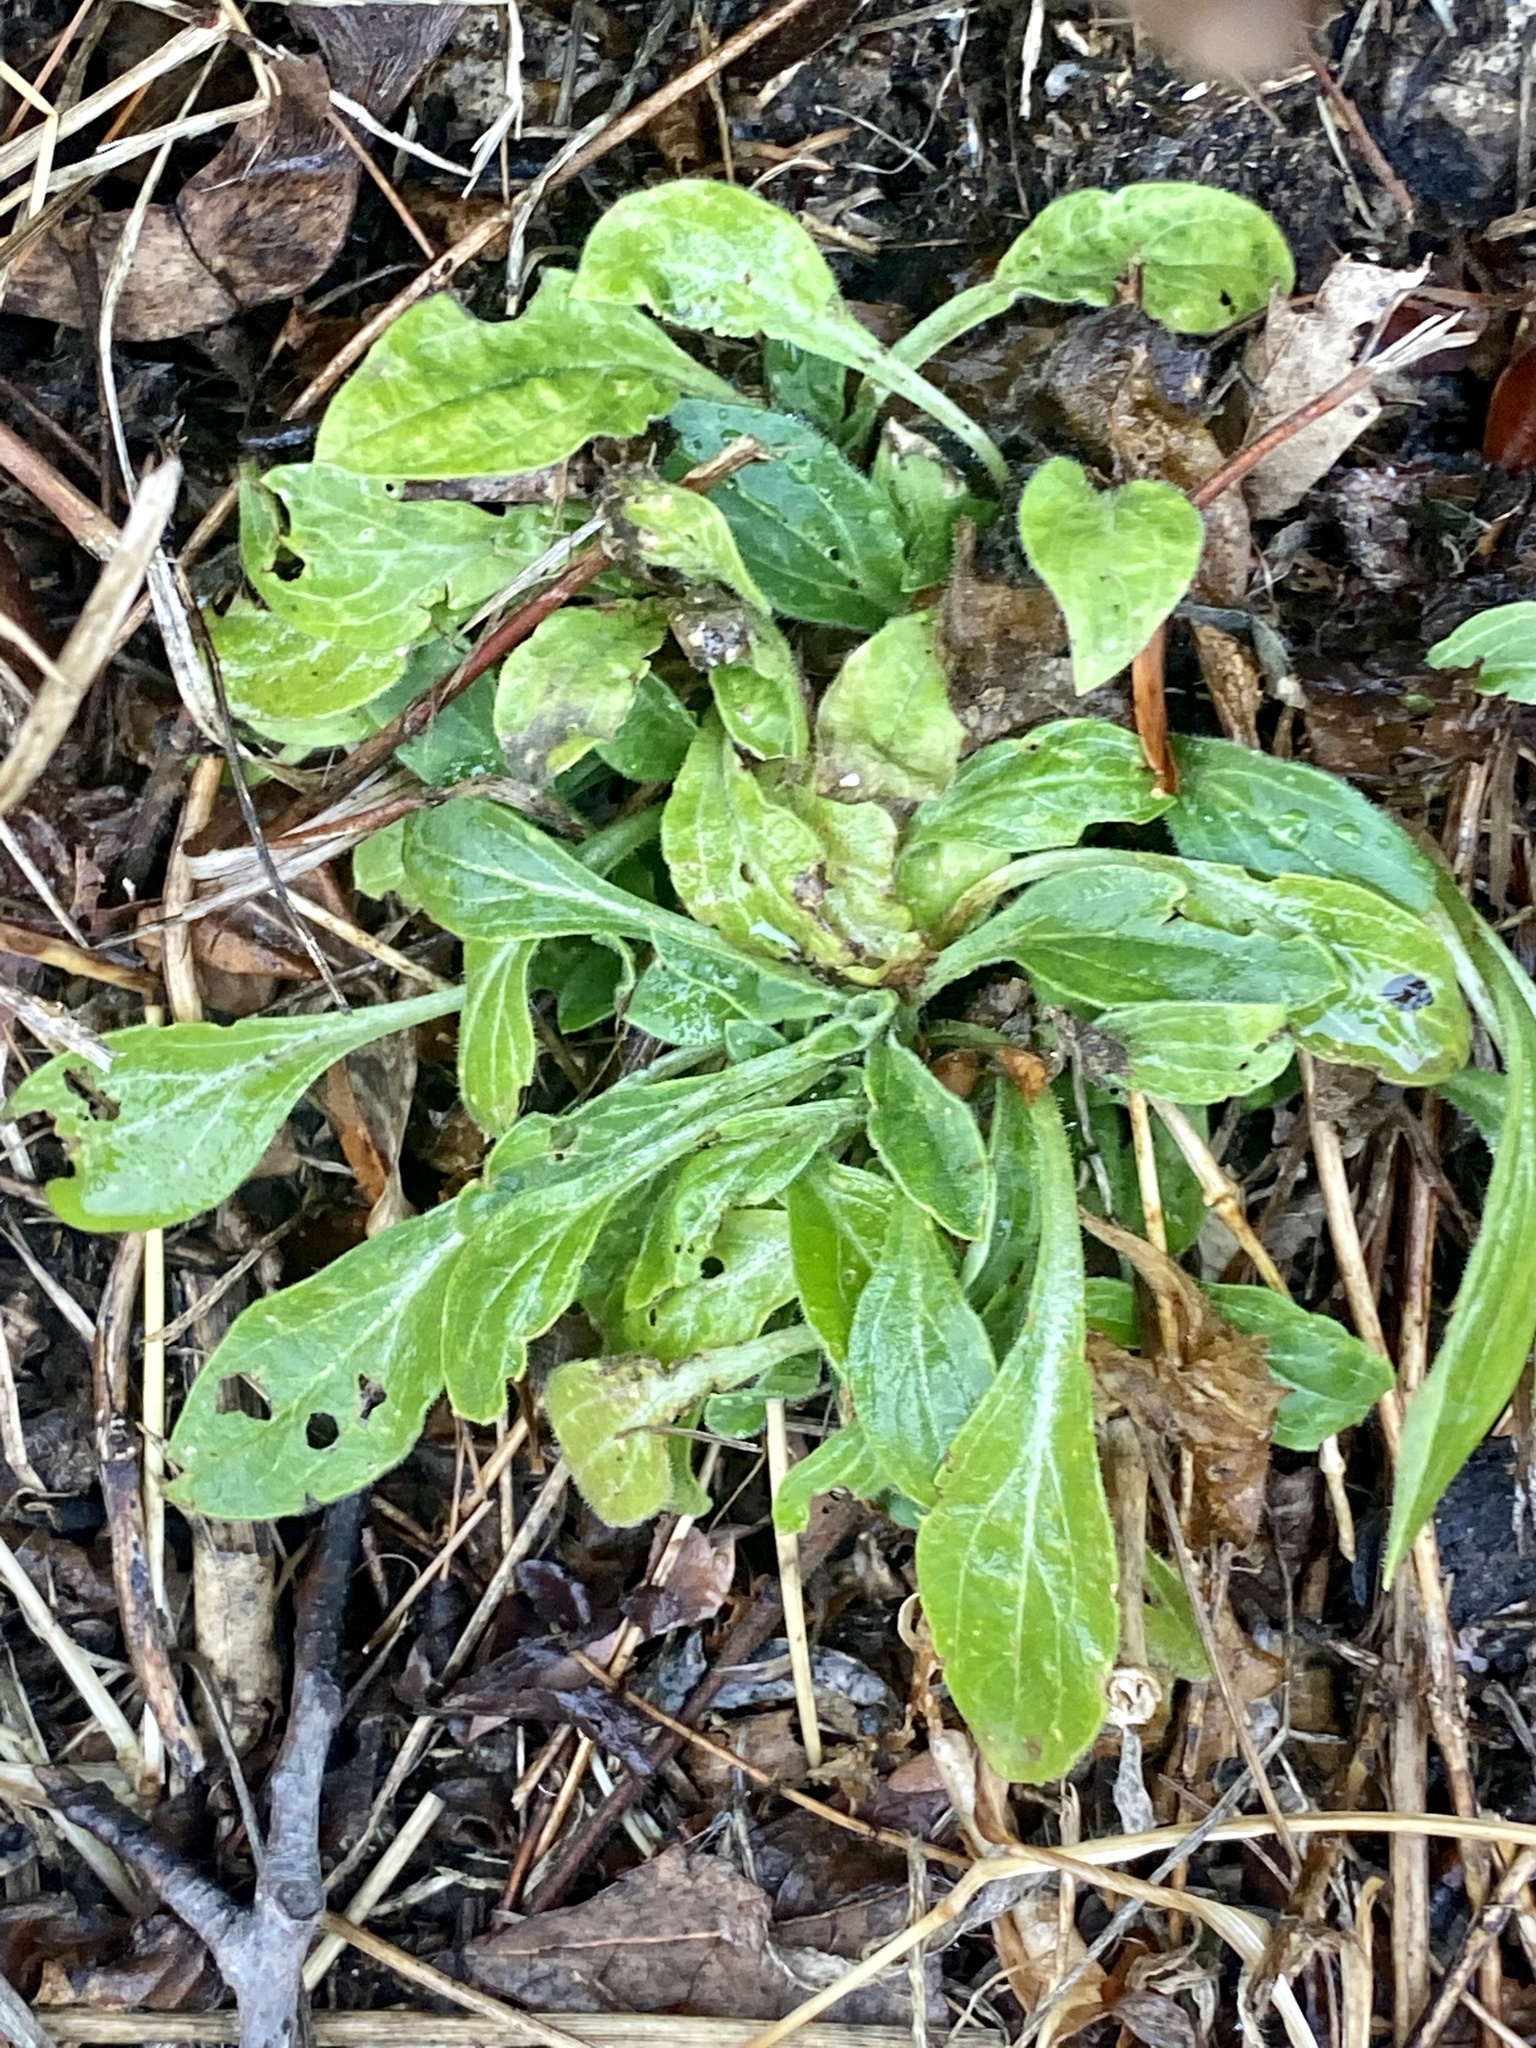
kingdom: Plantae
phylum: Tracheophyta
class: Magnoliopsida
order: Caryophyllales
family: Caryophyllaceae
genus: Silene
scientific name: Silene latifolia
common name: White campion
